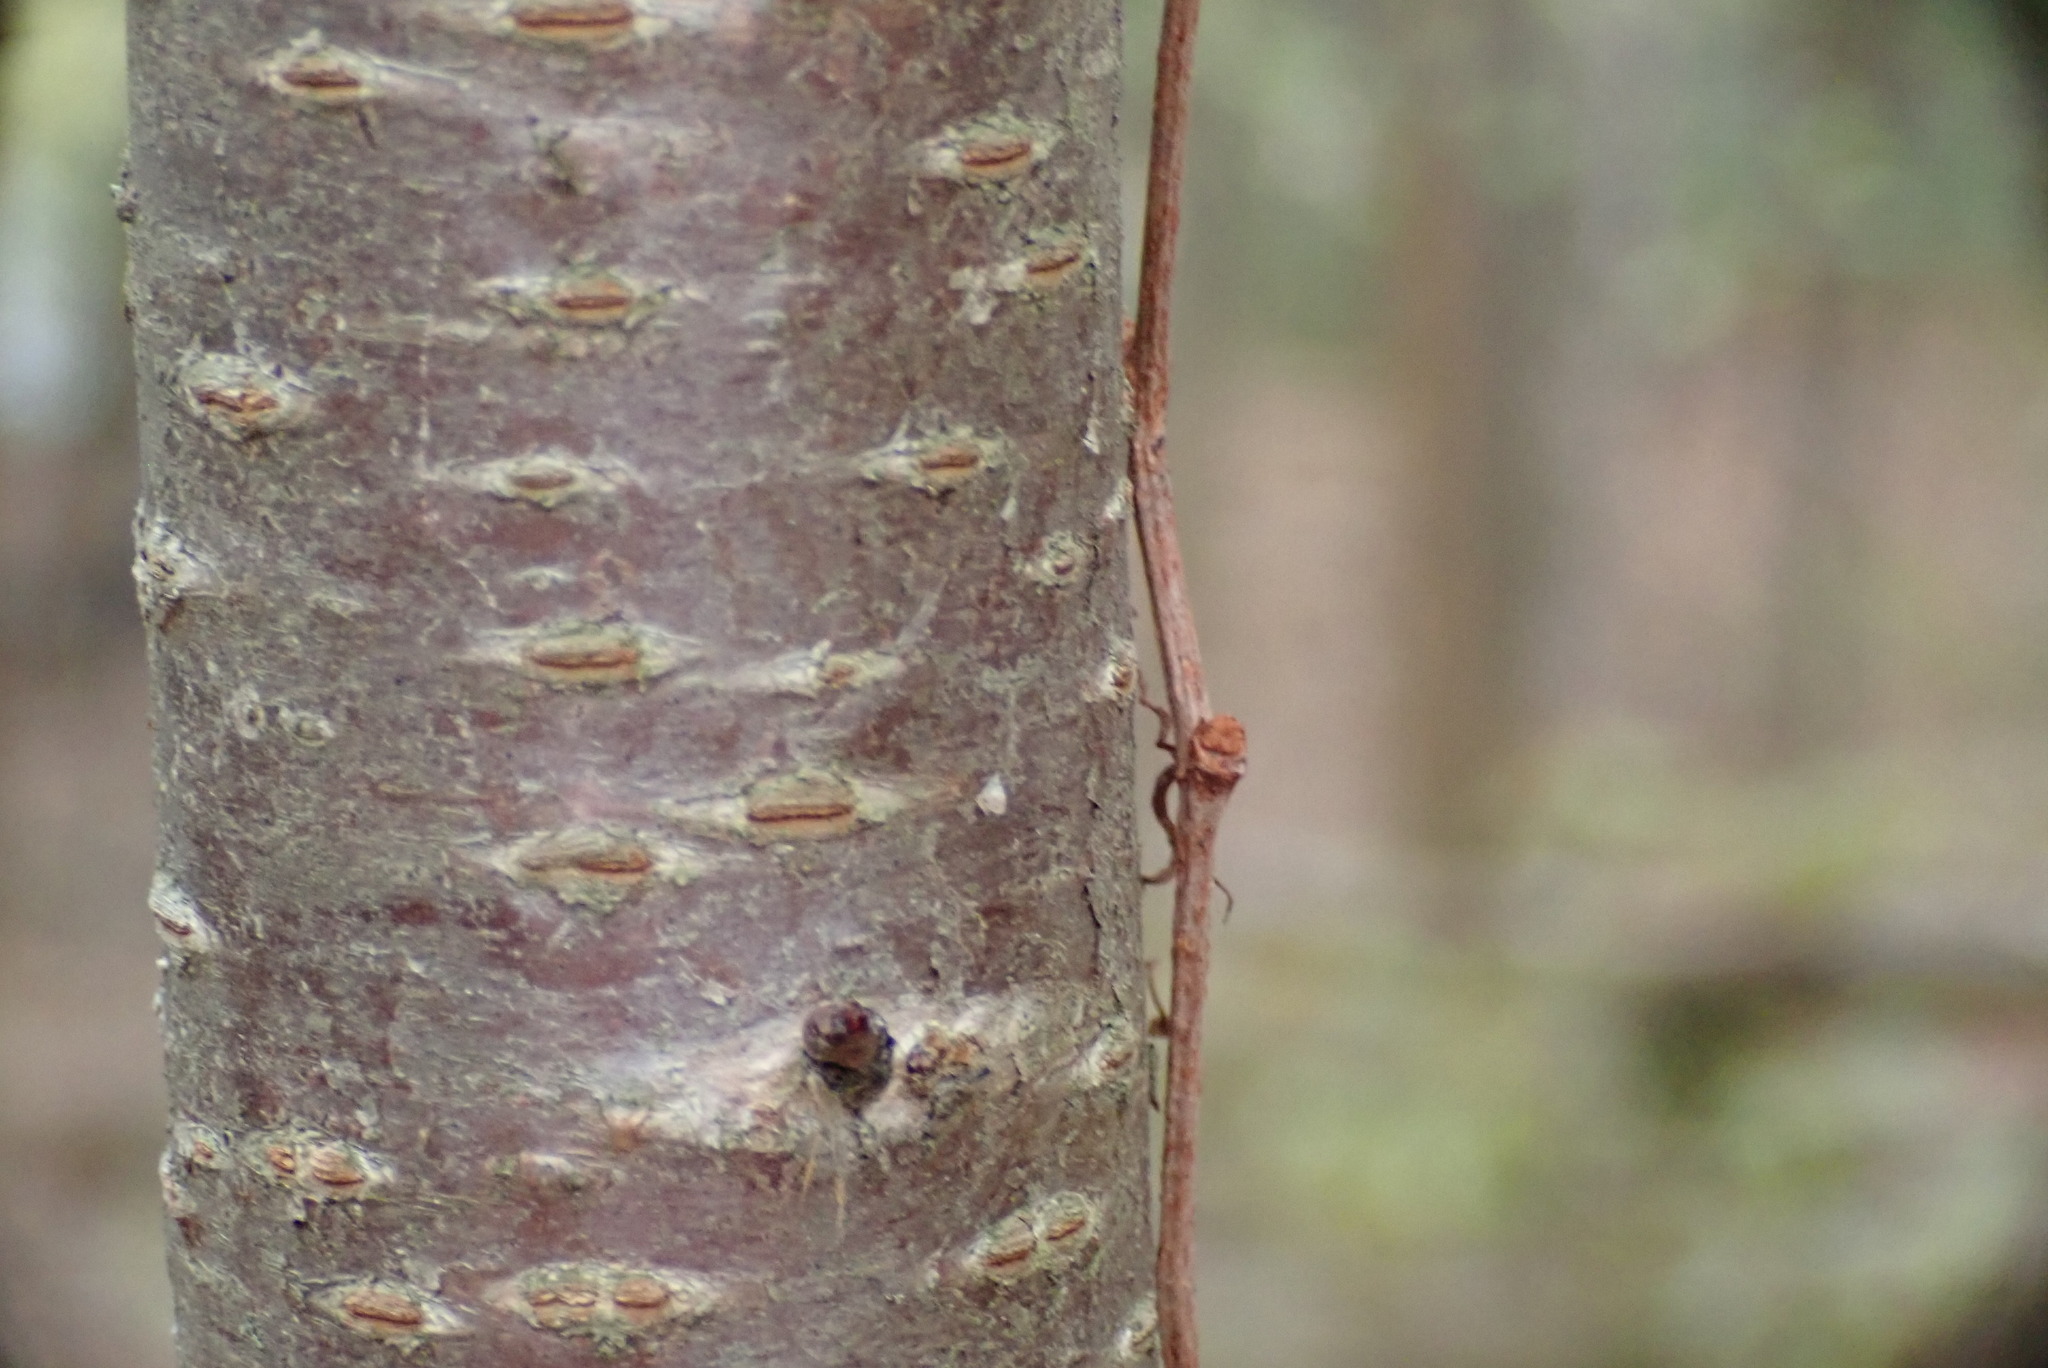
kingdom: Plantae
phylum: Tracheophyta
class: Magnoliopsida
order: Rosales
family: Rosaceae
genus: Prunus
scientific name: Prunus avium
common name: Sweet cherry
